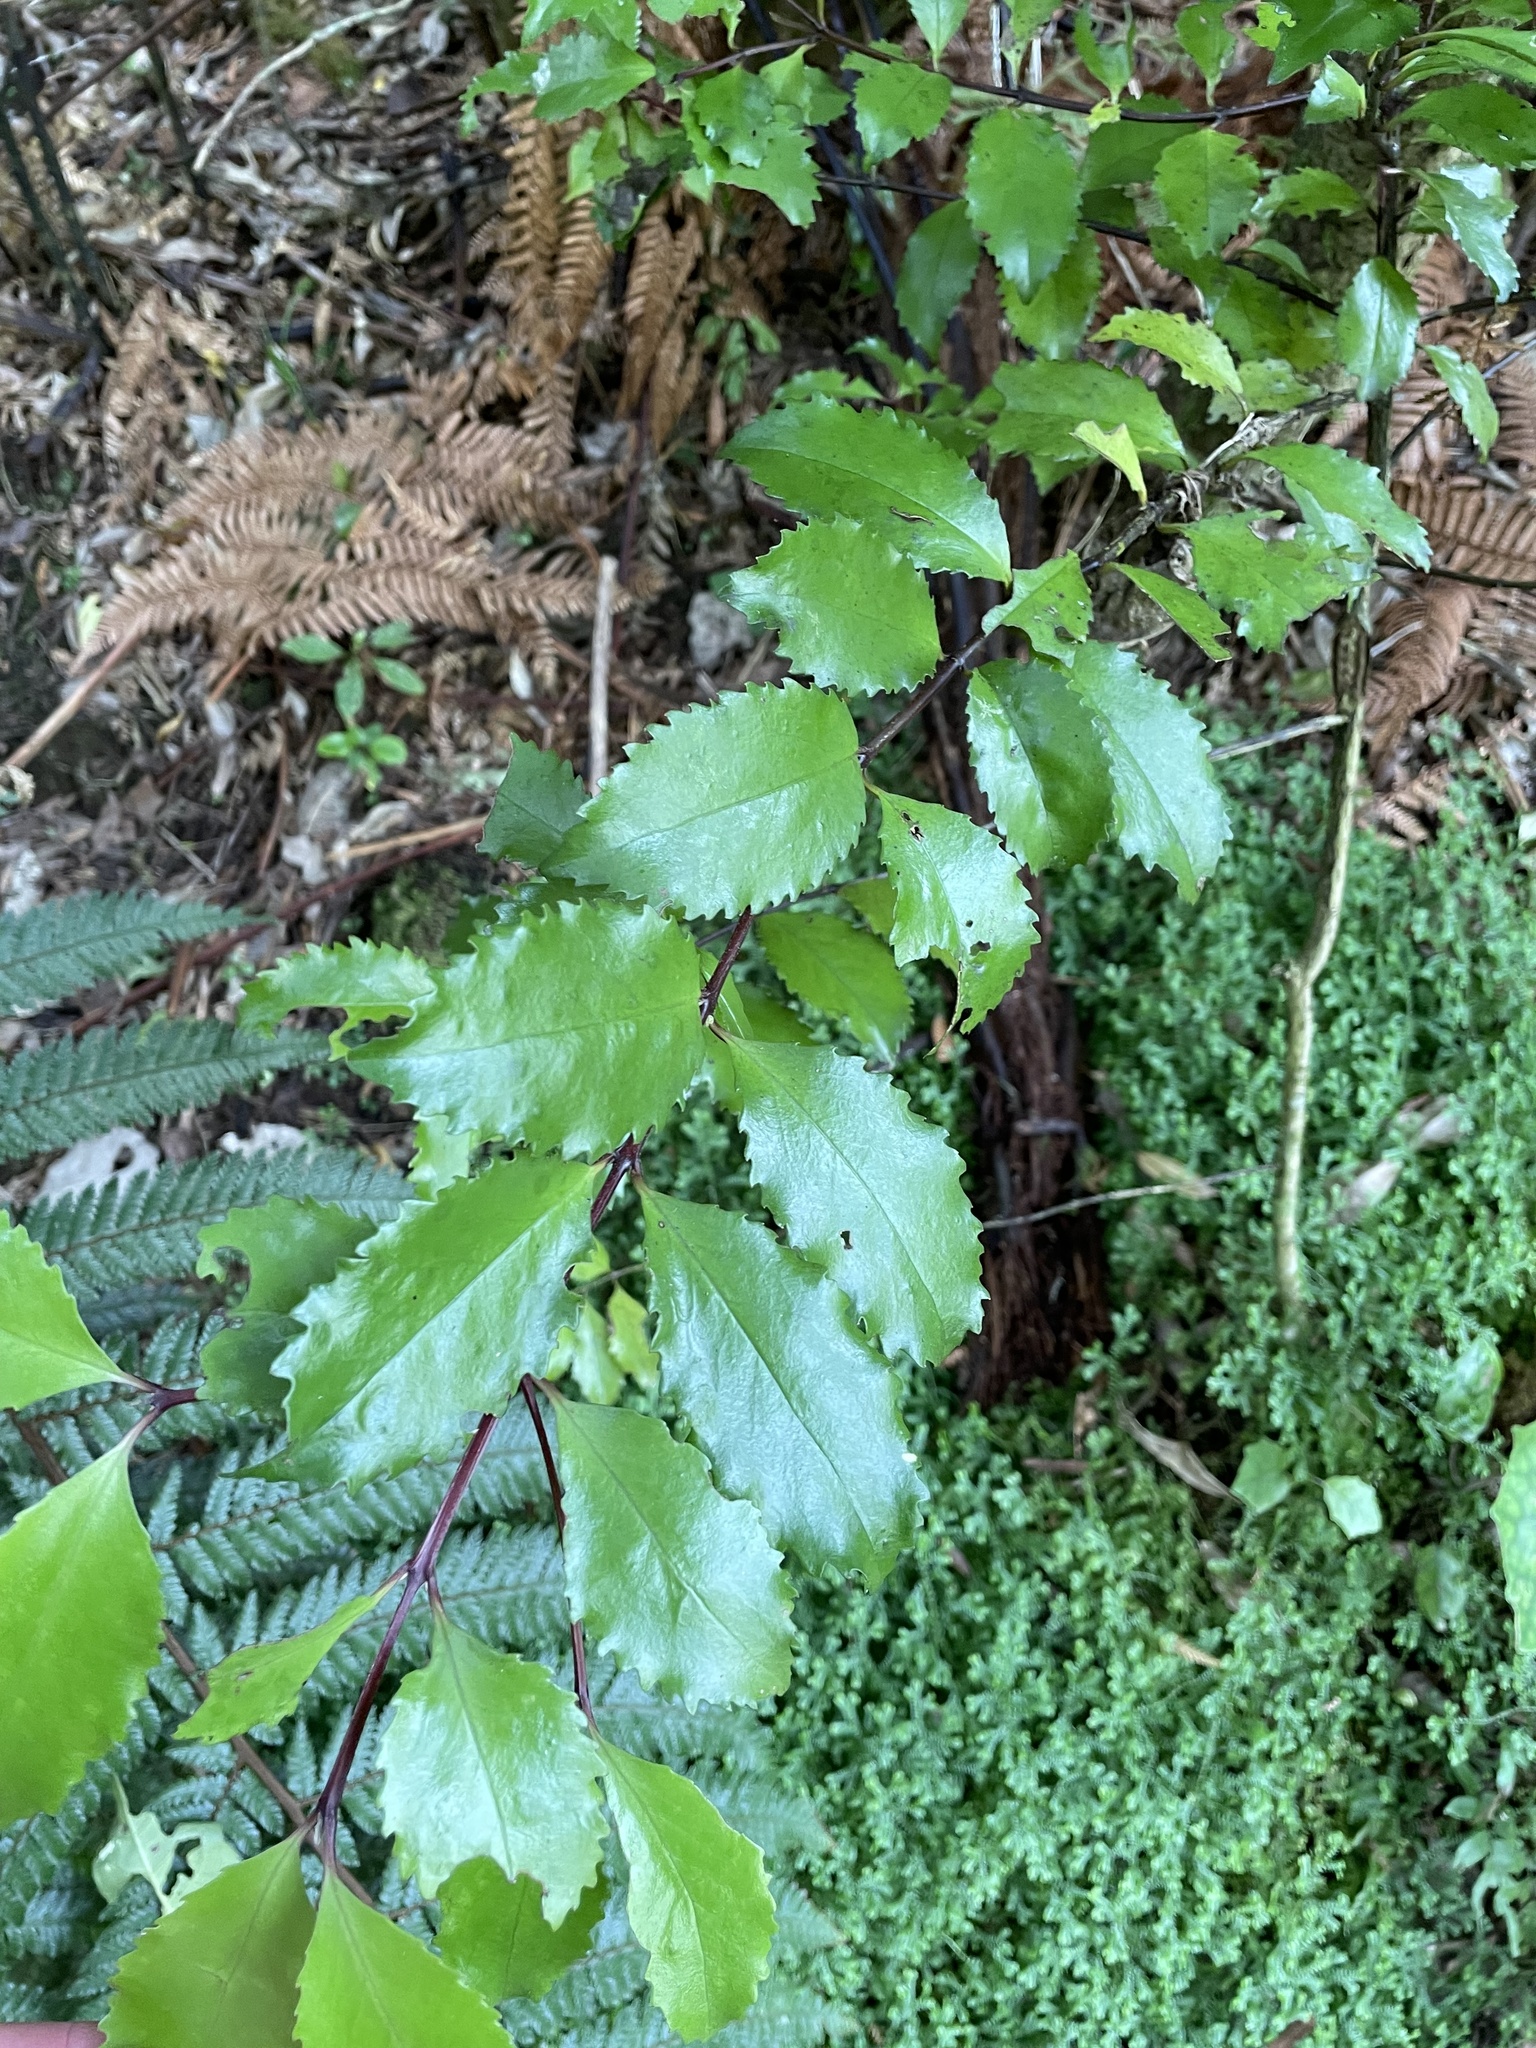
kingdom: Plantae
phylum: Tracheophyta
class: Magnoliopsida
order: Laurales
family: Atherospermataceae
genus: Laurelia
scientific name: Laurelia novae-zelandiae
